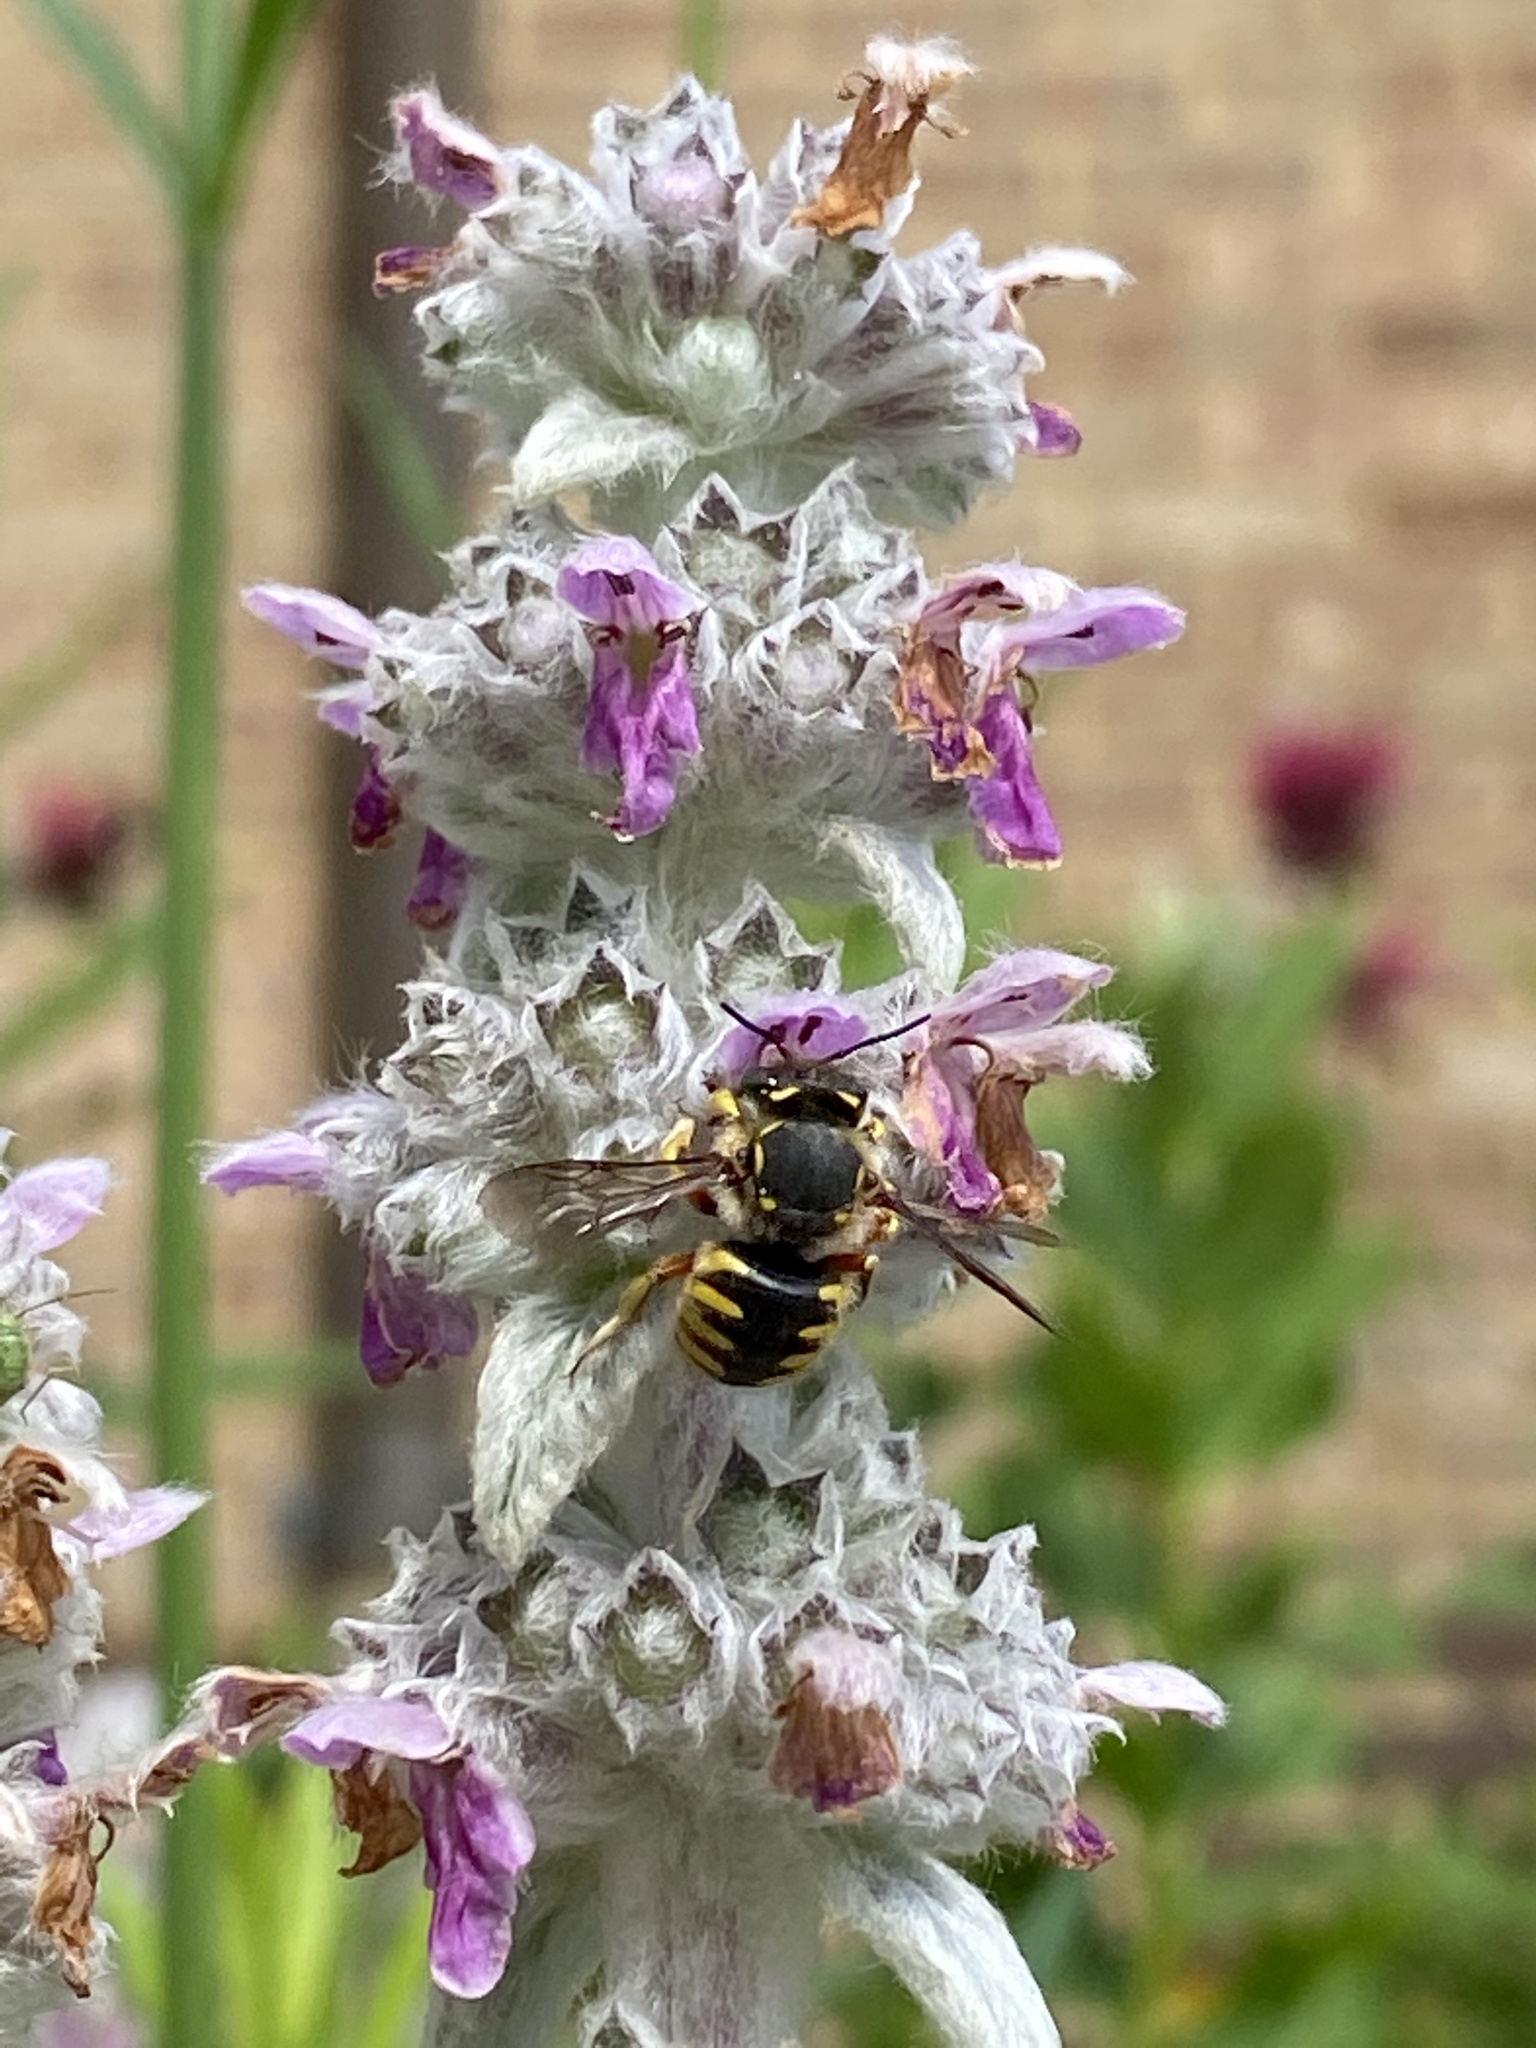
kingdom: Animalia
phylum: Arthropoda
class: Insecta
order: Hymenoptera
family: Megachilidae
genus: Anthidium
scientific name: Anthidium manicatum
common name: Wool carder bee
